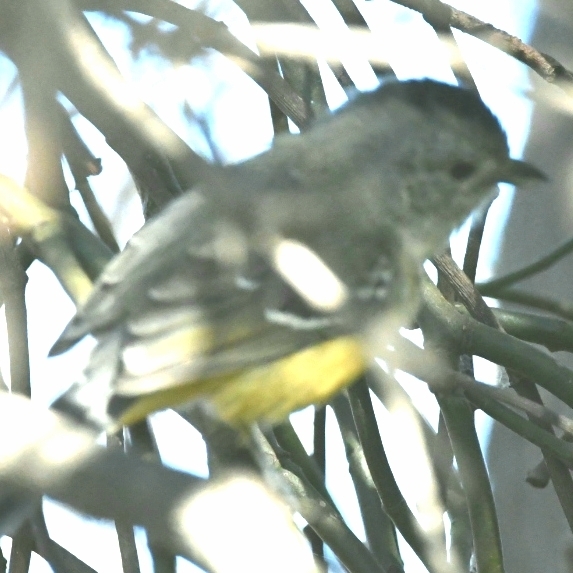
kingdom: Animalia
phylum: Chordata
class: Aves
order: Passeriformes
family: Thamnophilidae
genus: Thamnophilus
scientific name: Thamnophilus caerulescens
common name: Variable antshrike
